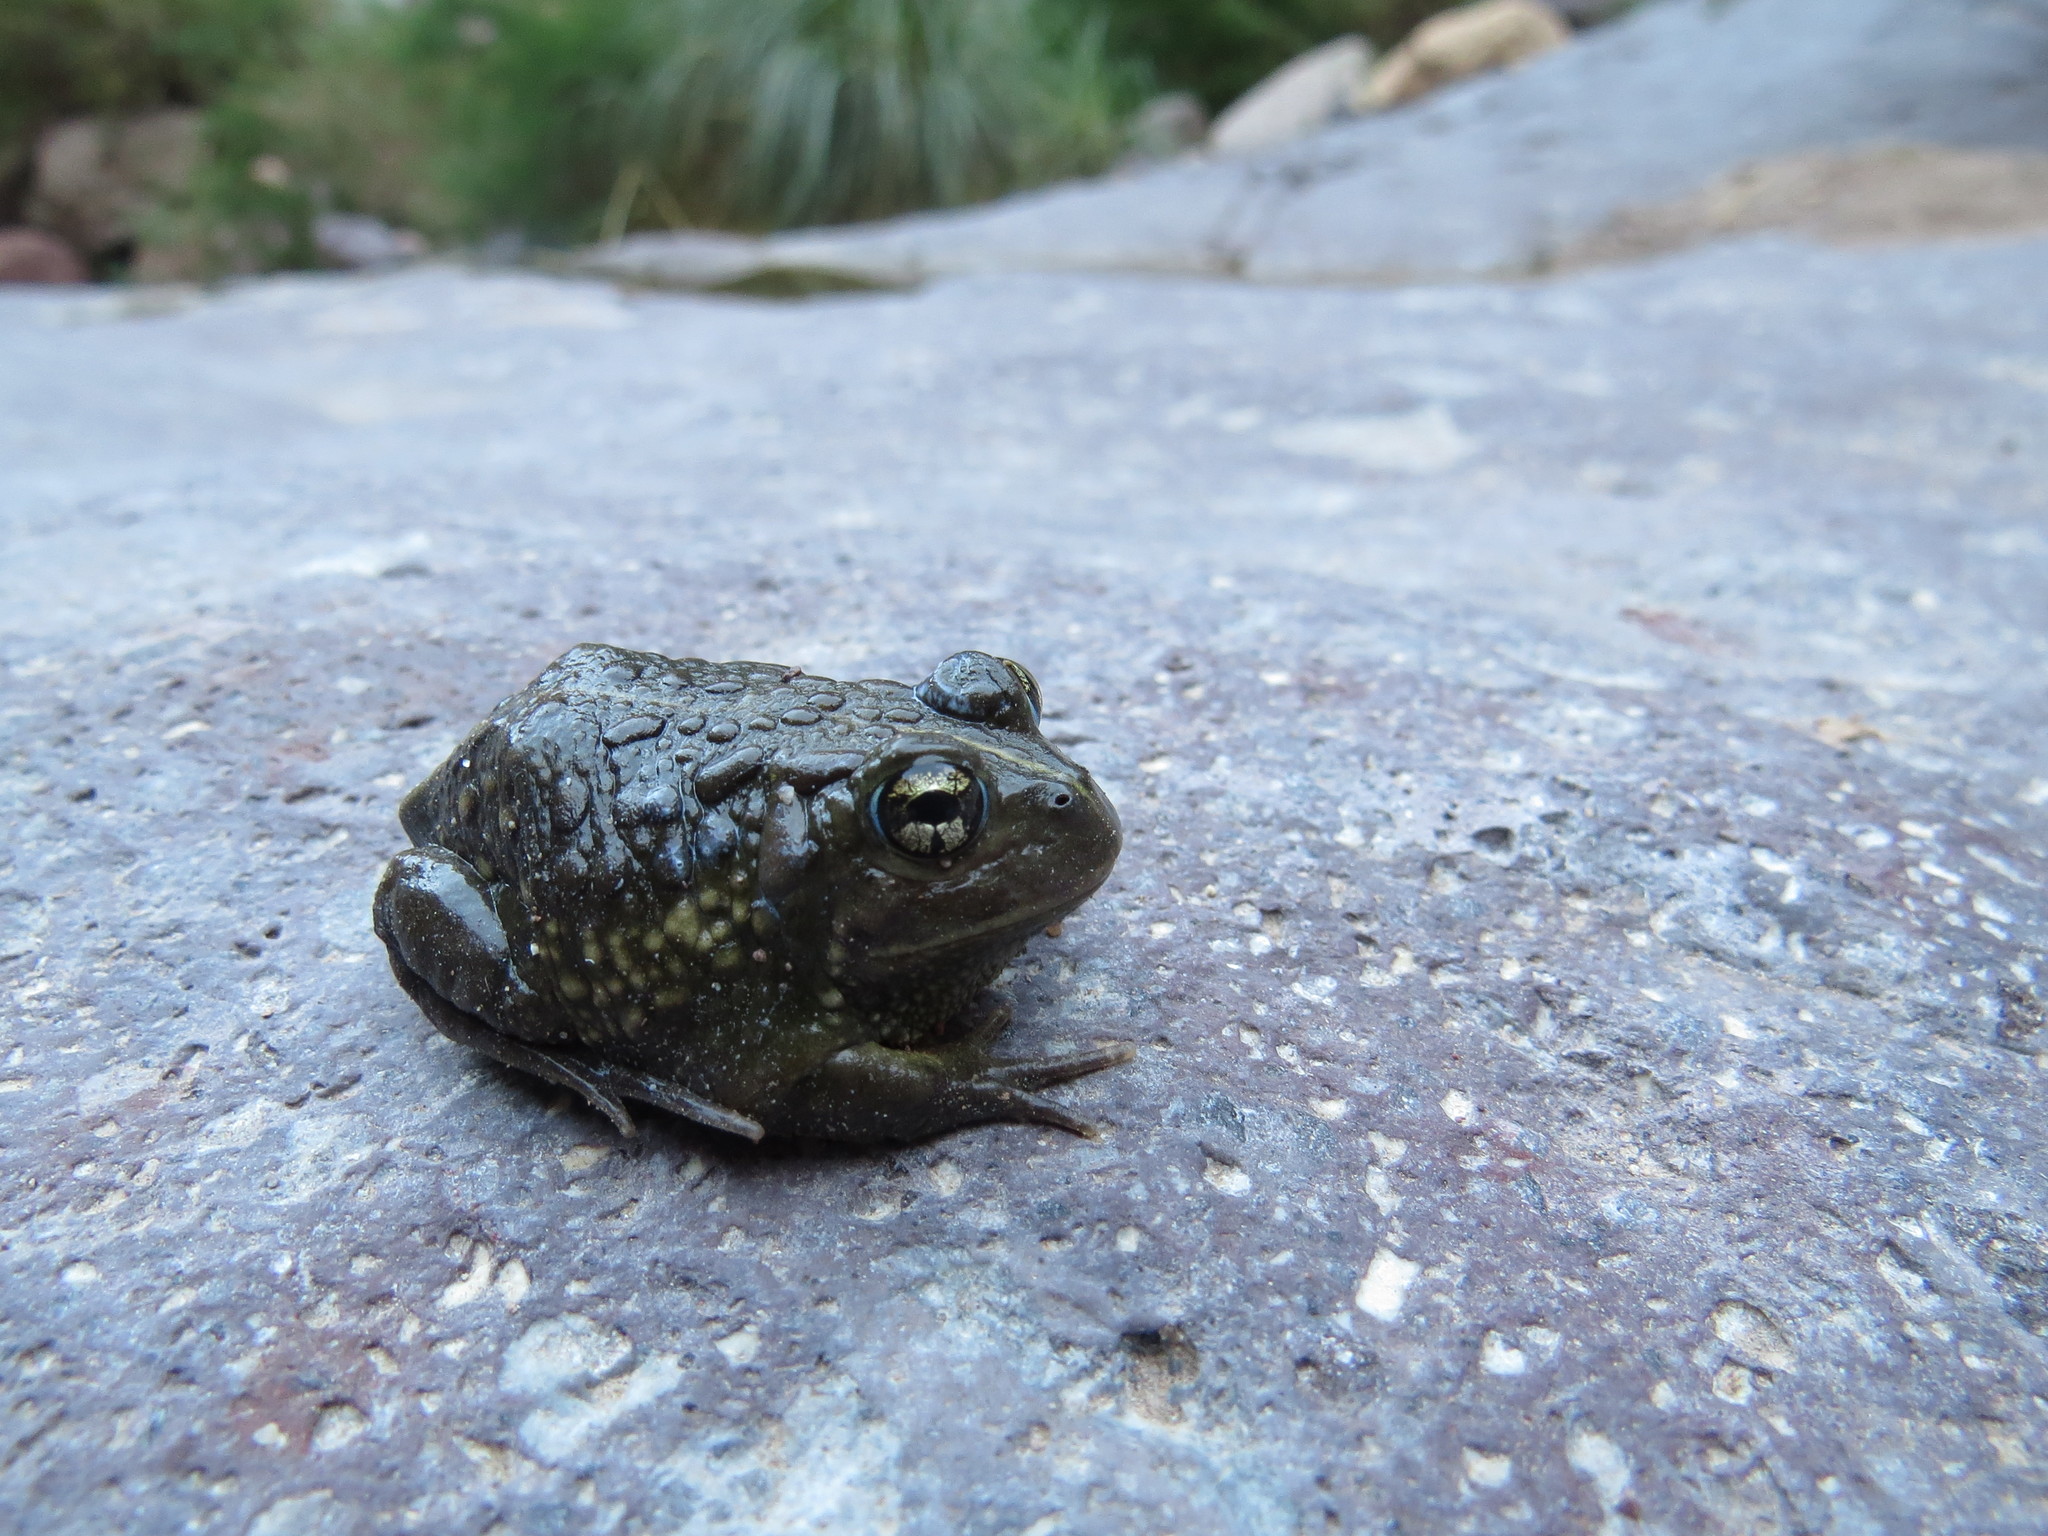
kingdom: Animalia
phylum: Chordata
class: Amphibia
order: Anura
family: Odontophrynidae
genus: Odontophrynus
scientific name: Odontophrynus americanus
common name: American ground frog
